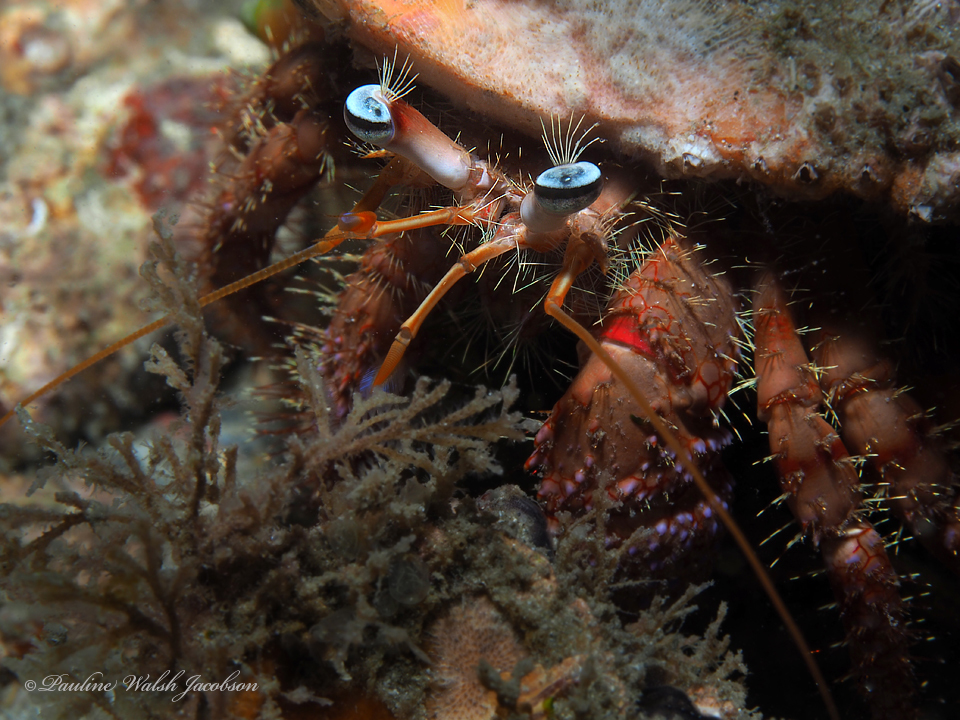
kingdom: Animalia
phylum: Arthropoda
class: Malacostraca
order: Decapoda
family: Diogenidae
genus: Dardanus
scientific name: Dardanus fucosus
